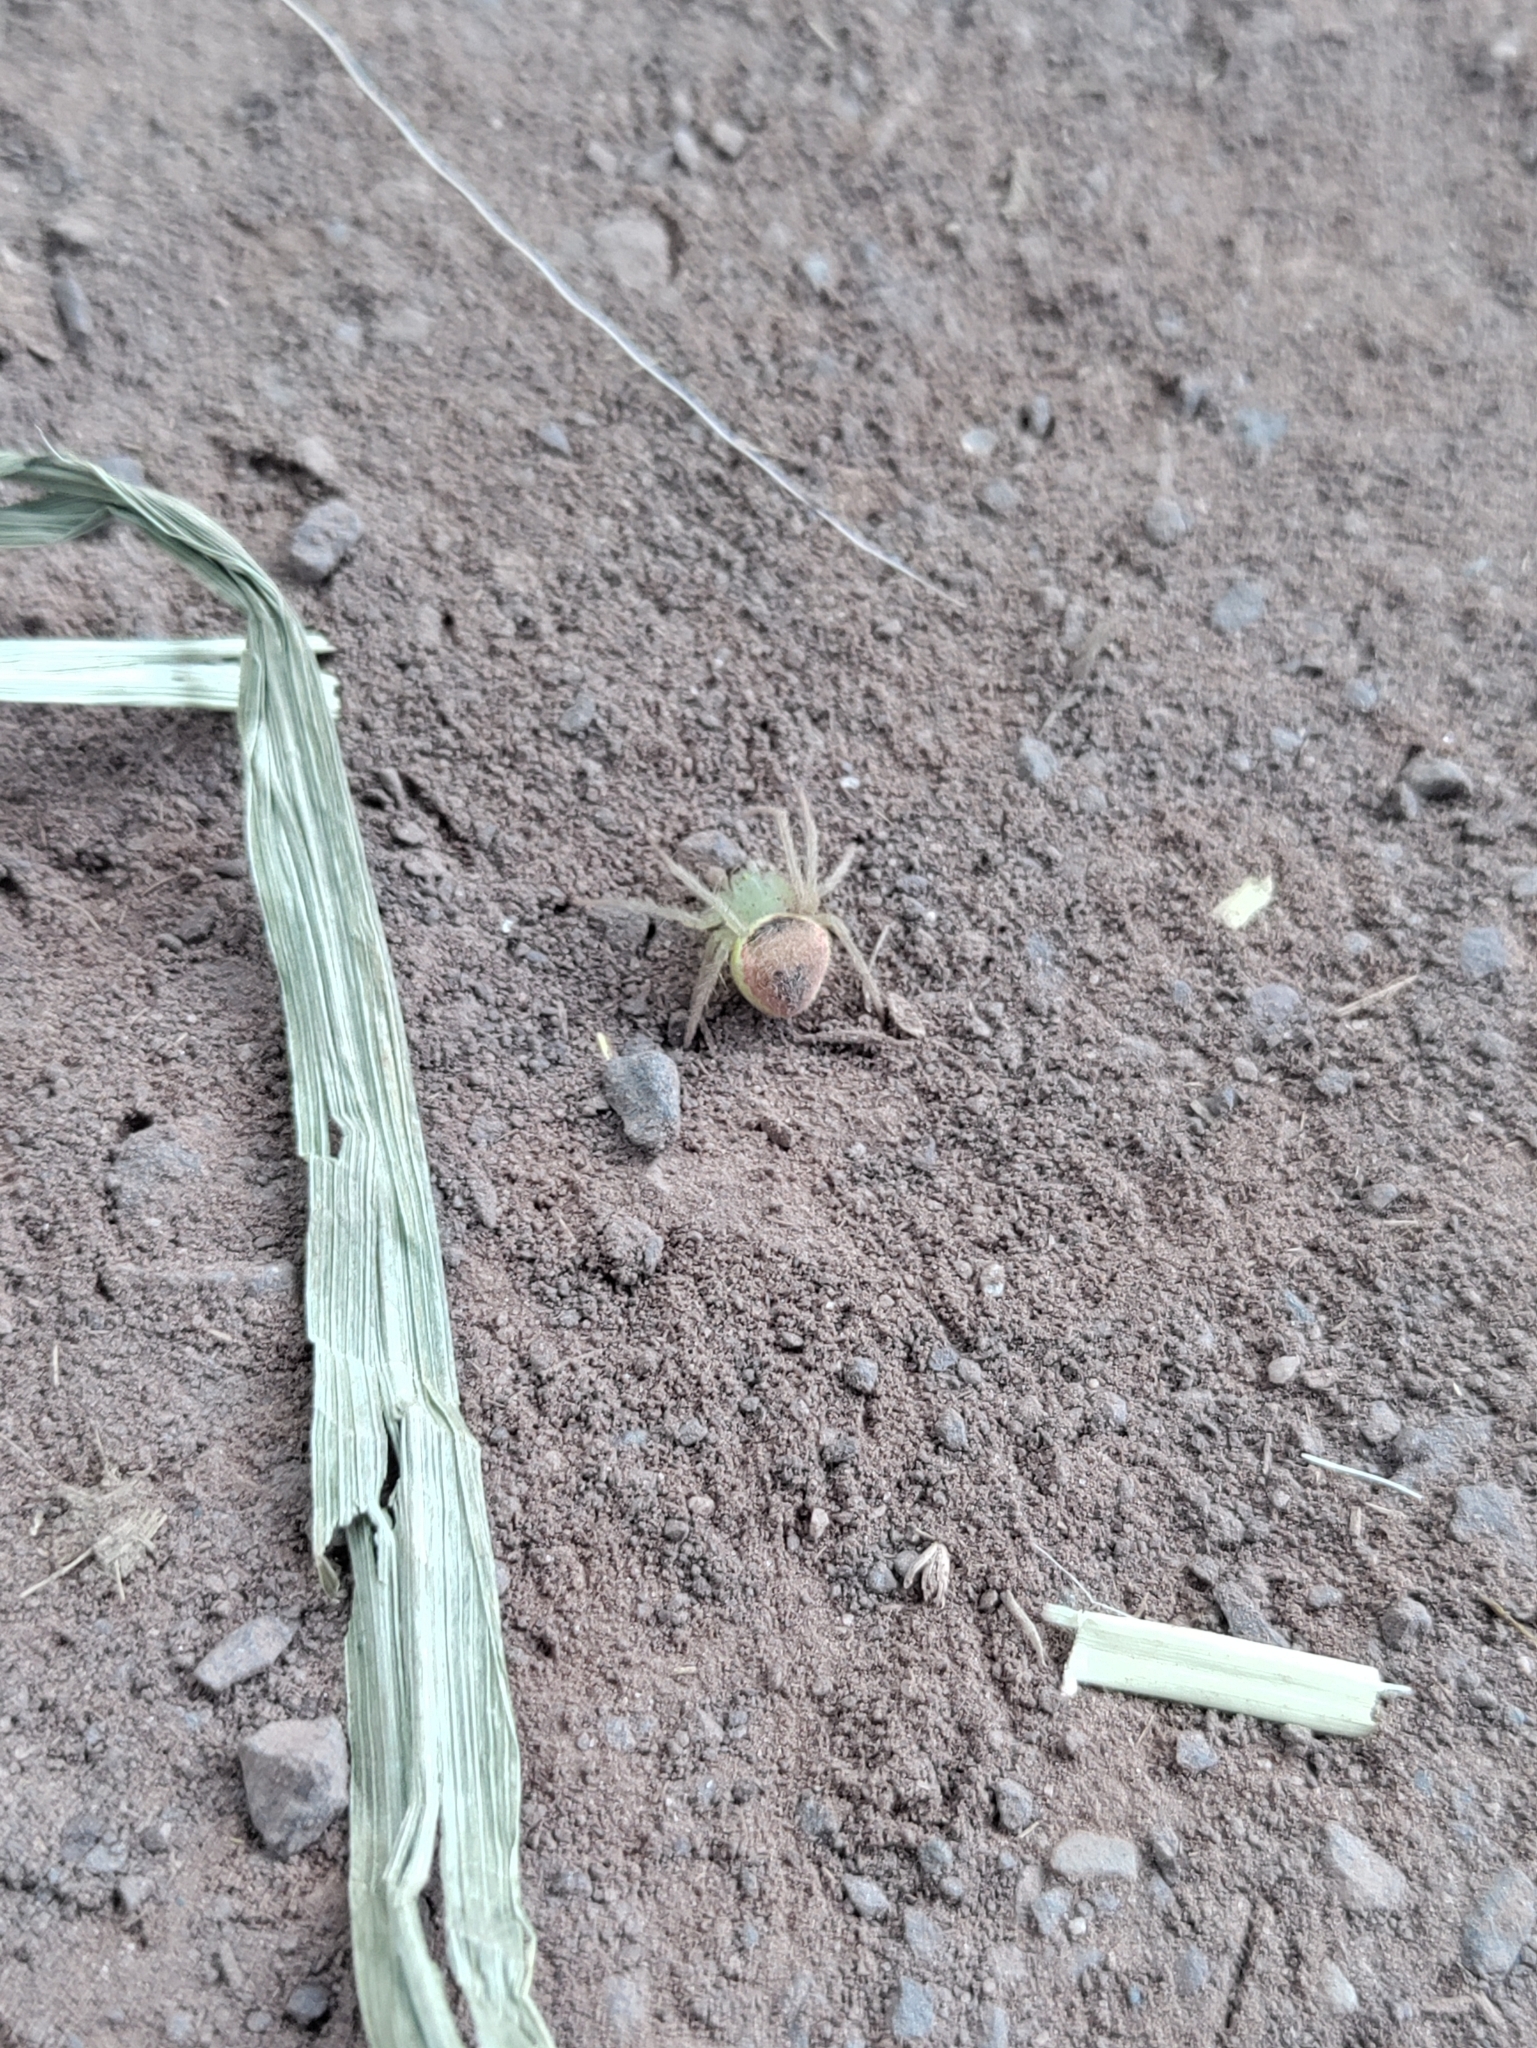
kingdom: Animalia
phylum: Arthropoda
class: Arachnida
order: Araneae
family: Araneidae
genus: Araneus
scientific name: Araneus alboventris
